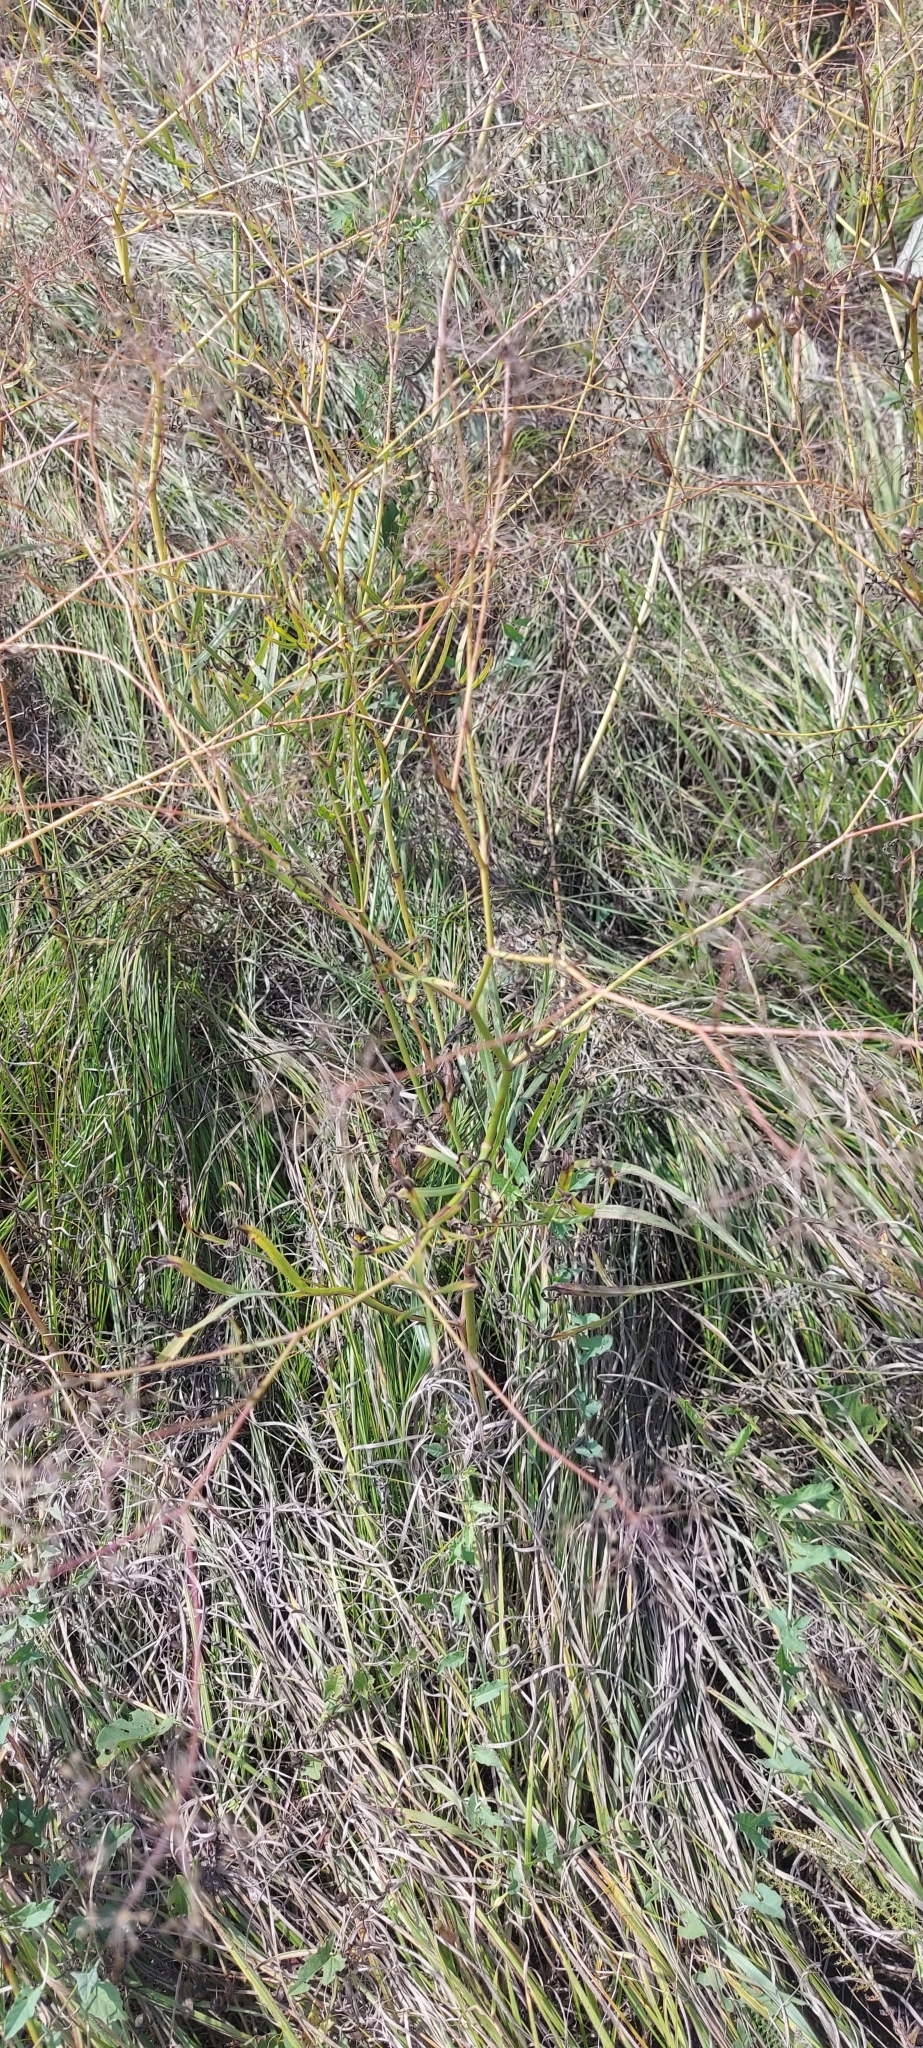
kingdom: Plantae
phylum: Tracheophyta
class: Magnoliopsida
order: Apiales
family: Apiaceae
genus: Falcaria
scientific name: Falcaria vulgaris
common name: Longleaf
